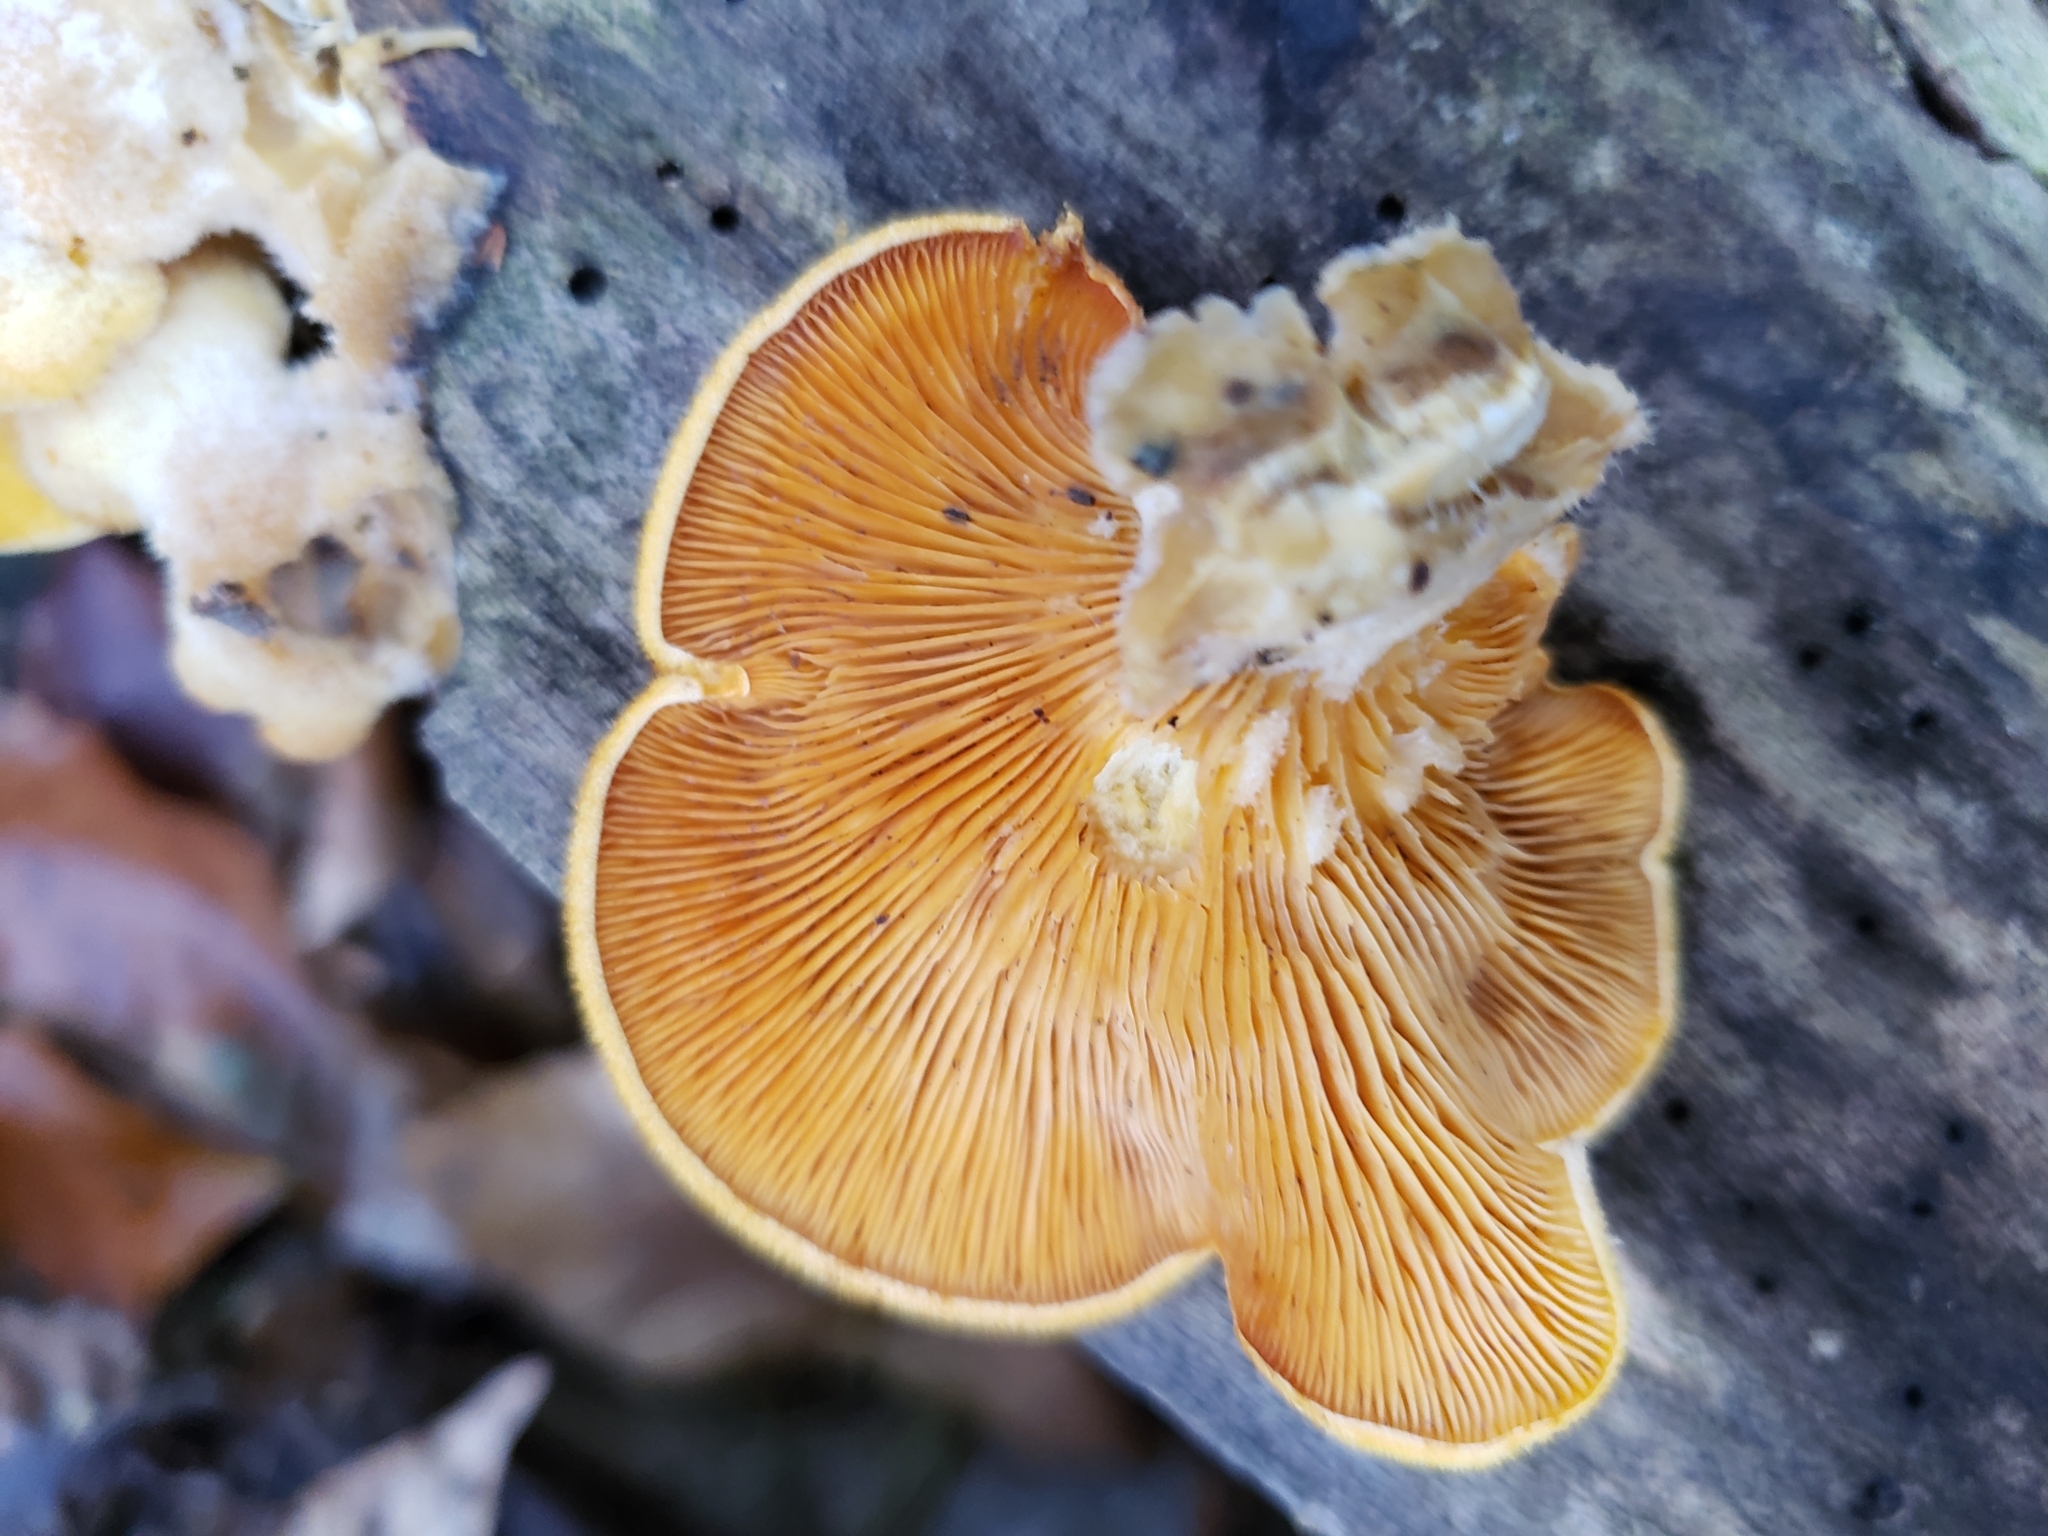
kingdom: Fungi
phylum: Basidiomycota
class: Agaricomycetes
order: Agaricales
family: Phyllotopsidaceae
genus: Phyllotopsis
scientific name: Phyllotopsis nidulans
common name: Orange mock oyster
